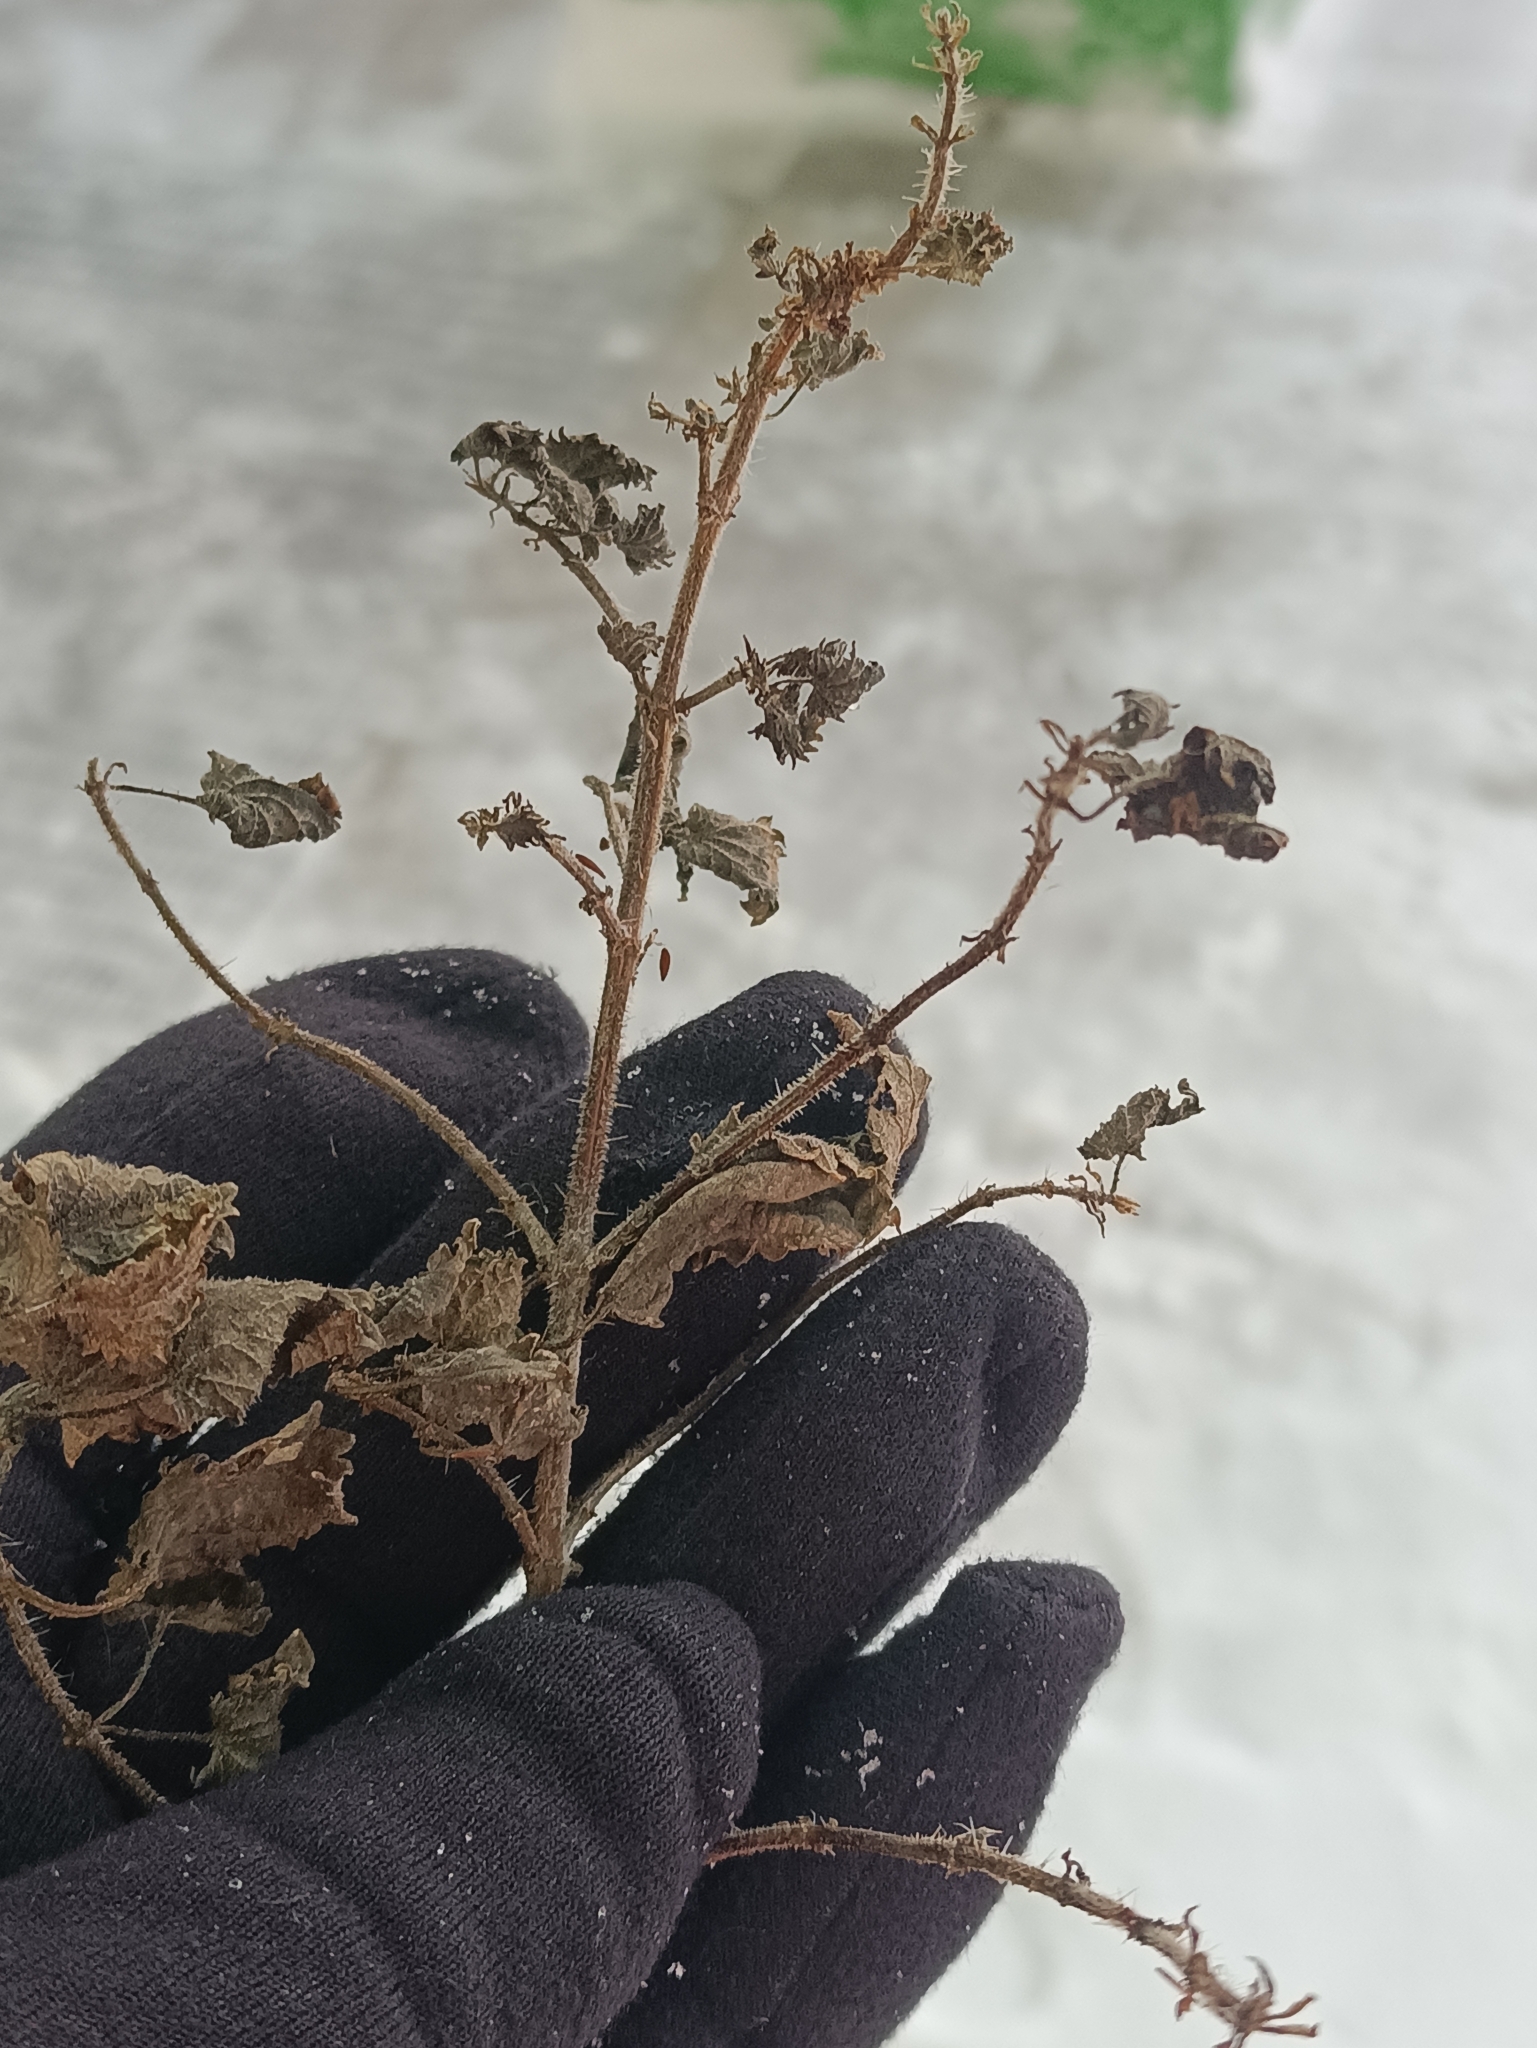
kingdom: Plantae
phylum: Tracheophyta
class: Magnoliopsida
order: Rosales
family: Urticaceae
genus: Urtica
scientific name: Urtica dioica
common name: Common nettle
